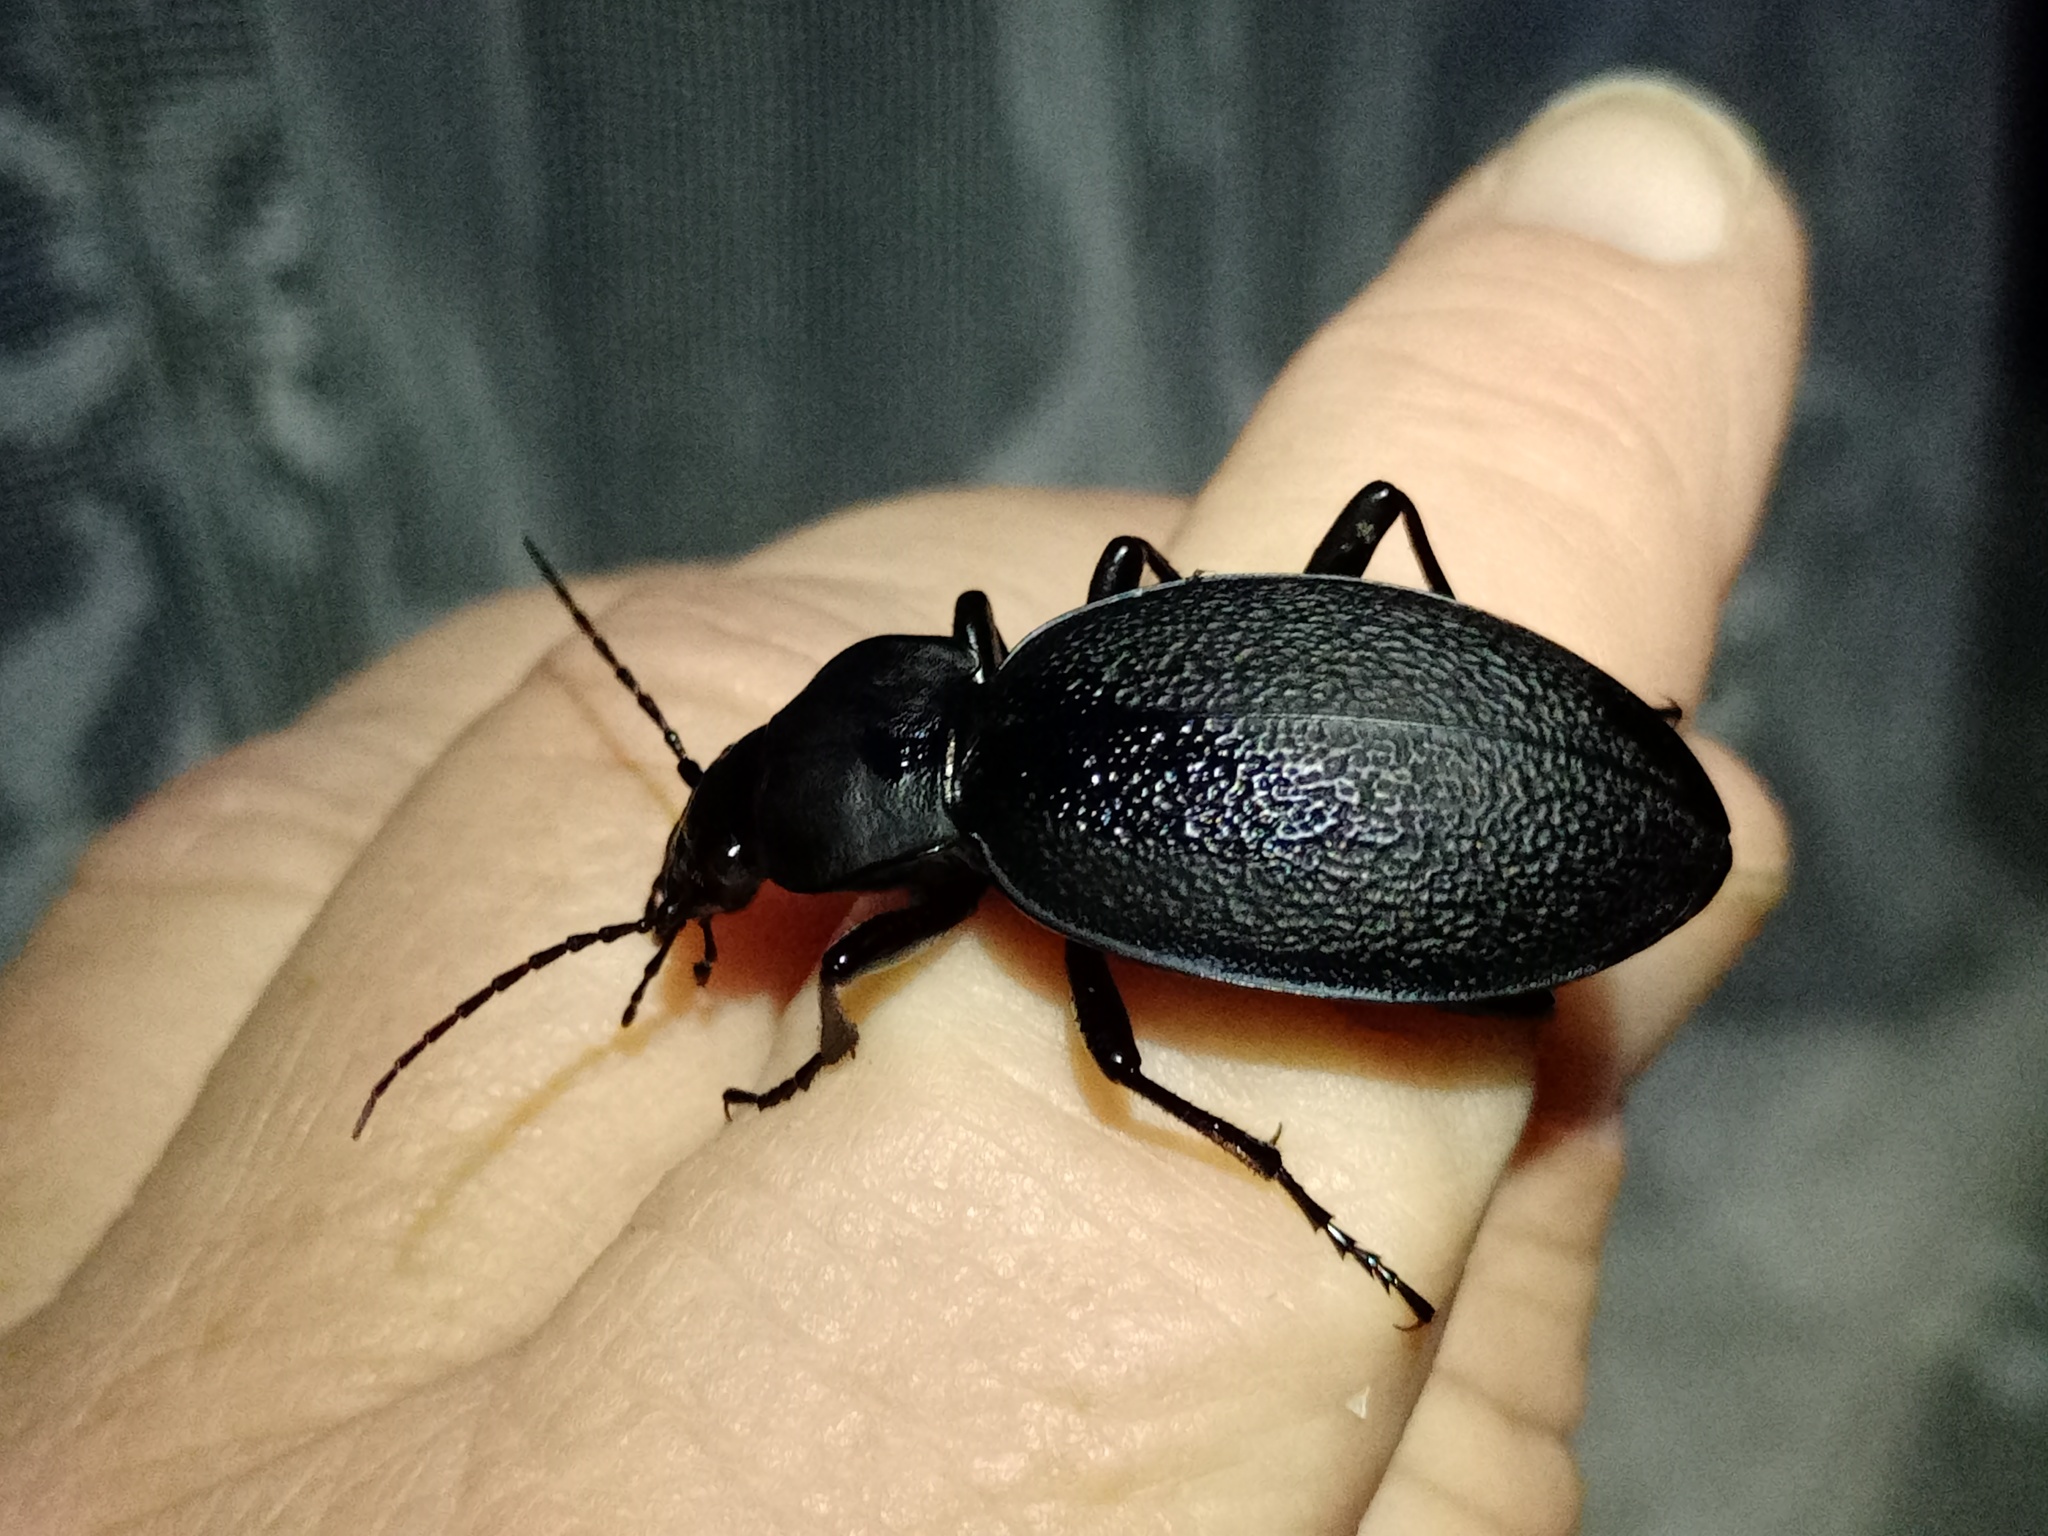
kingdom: Animalia
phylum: Arthropoda
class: Insecta
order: Coleoptera
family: Carabidae
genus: Carabus
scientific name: Carabus coriaceus
